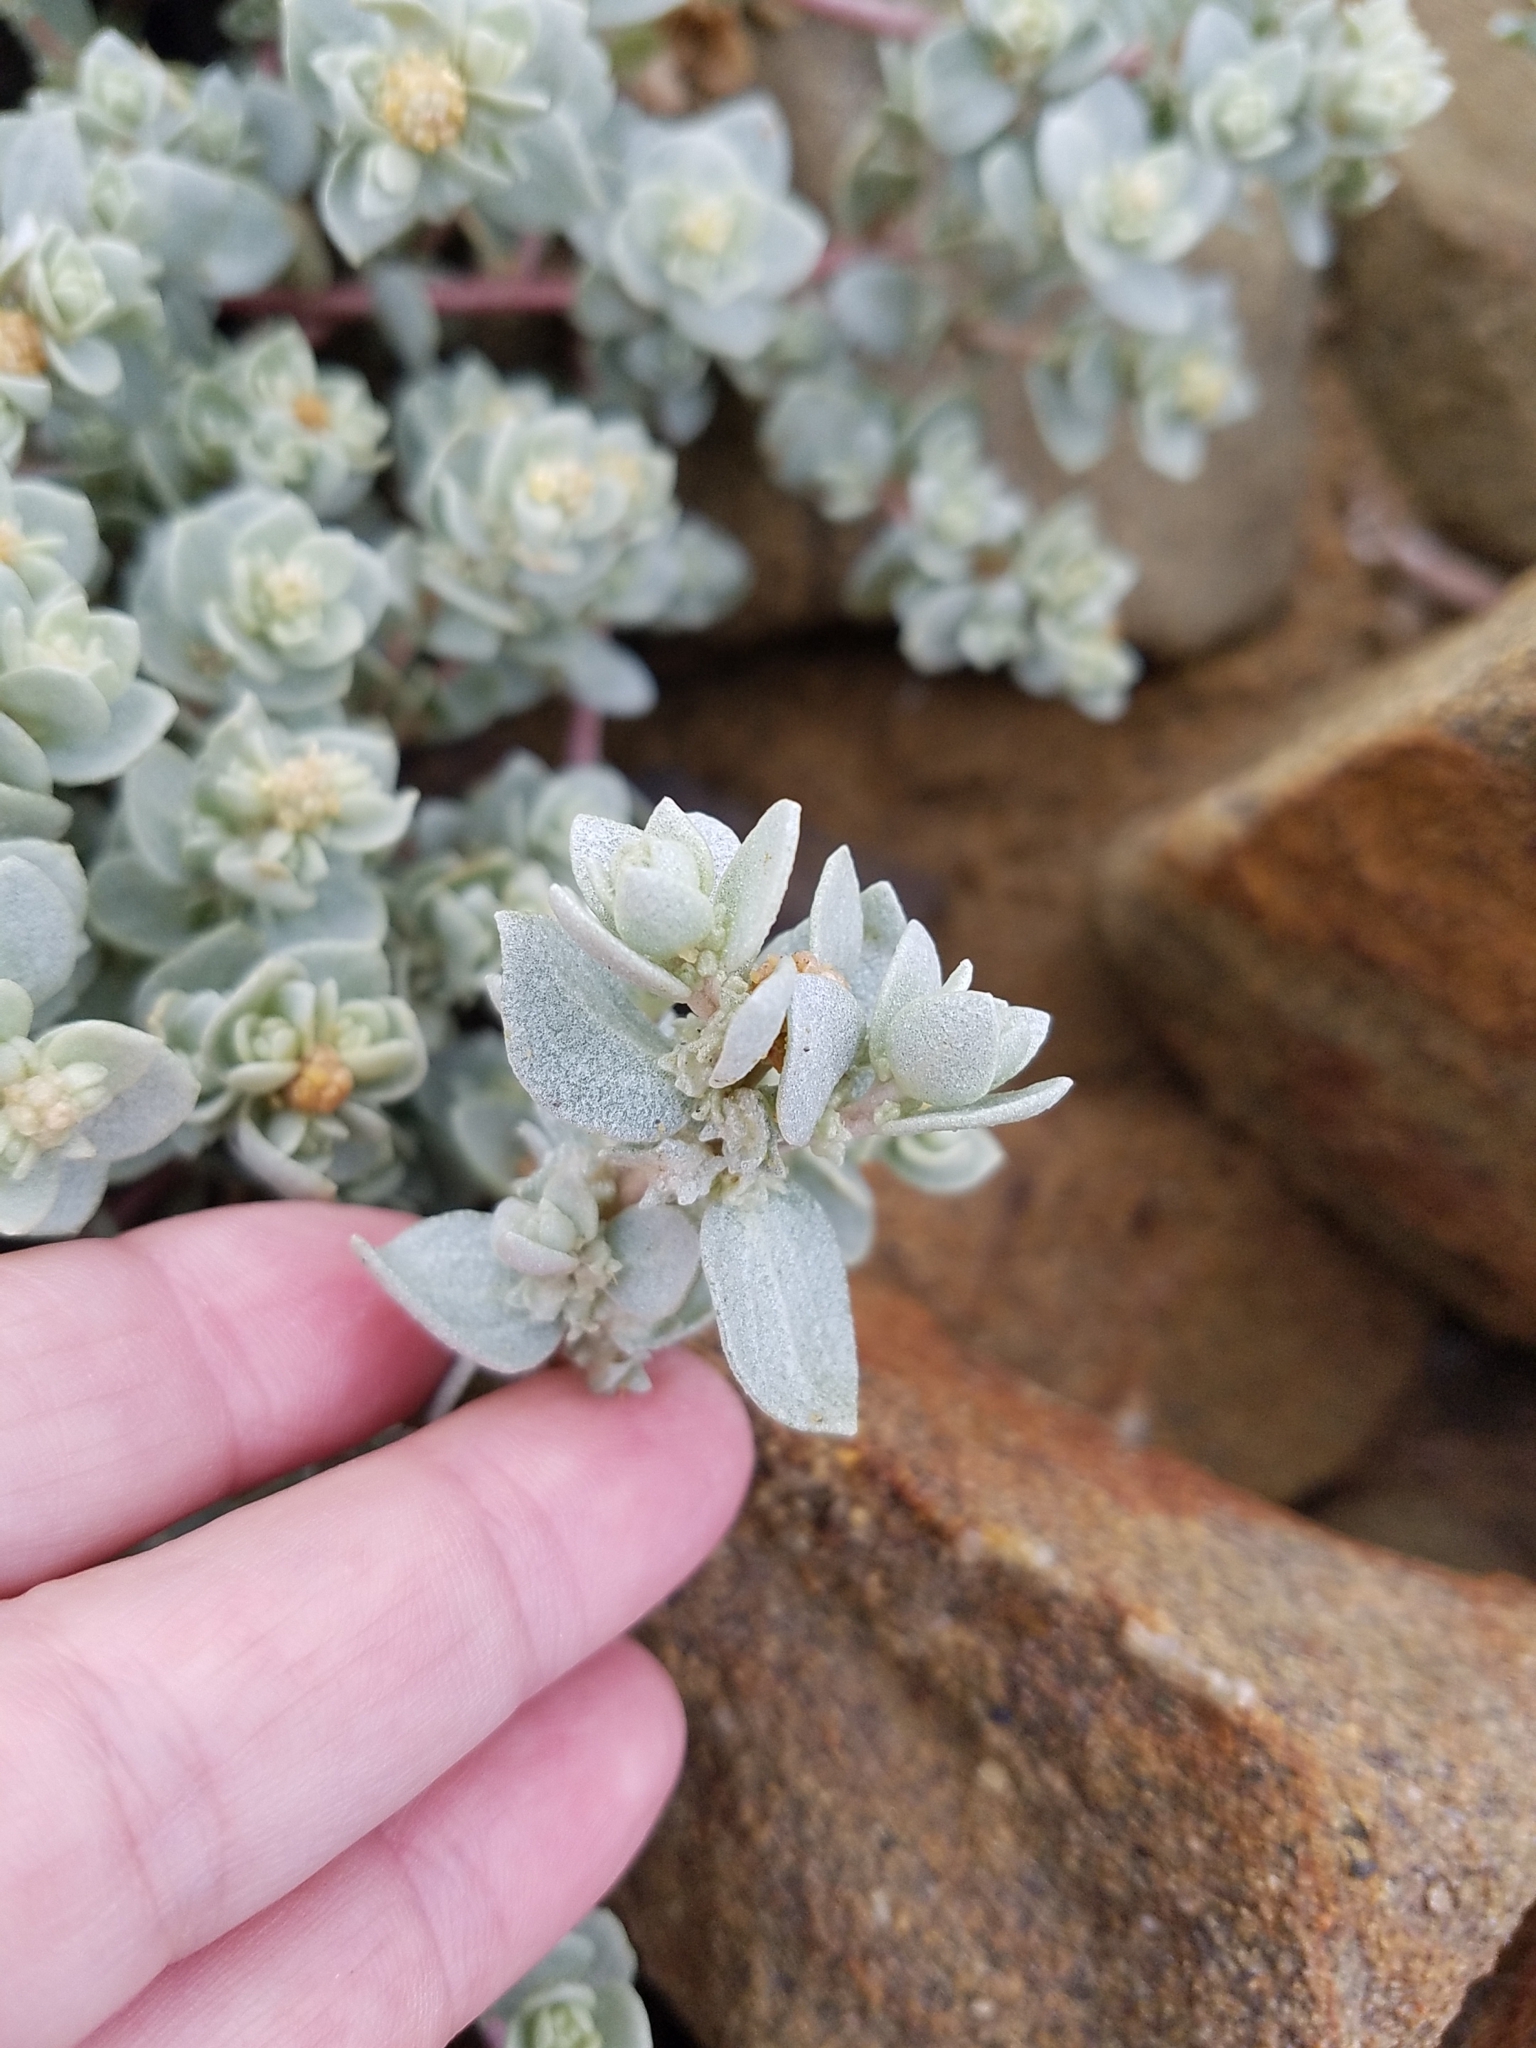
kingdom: Plantae
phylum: Tracheophyta
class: Magnoliopsida
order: Caryophyllales
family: Amaranthaceae
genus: Atriplex
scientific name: Atriplex leucophylla
